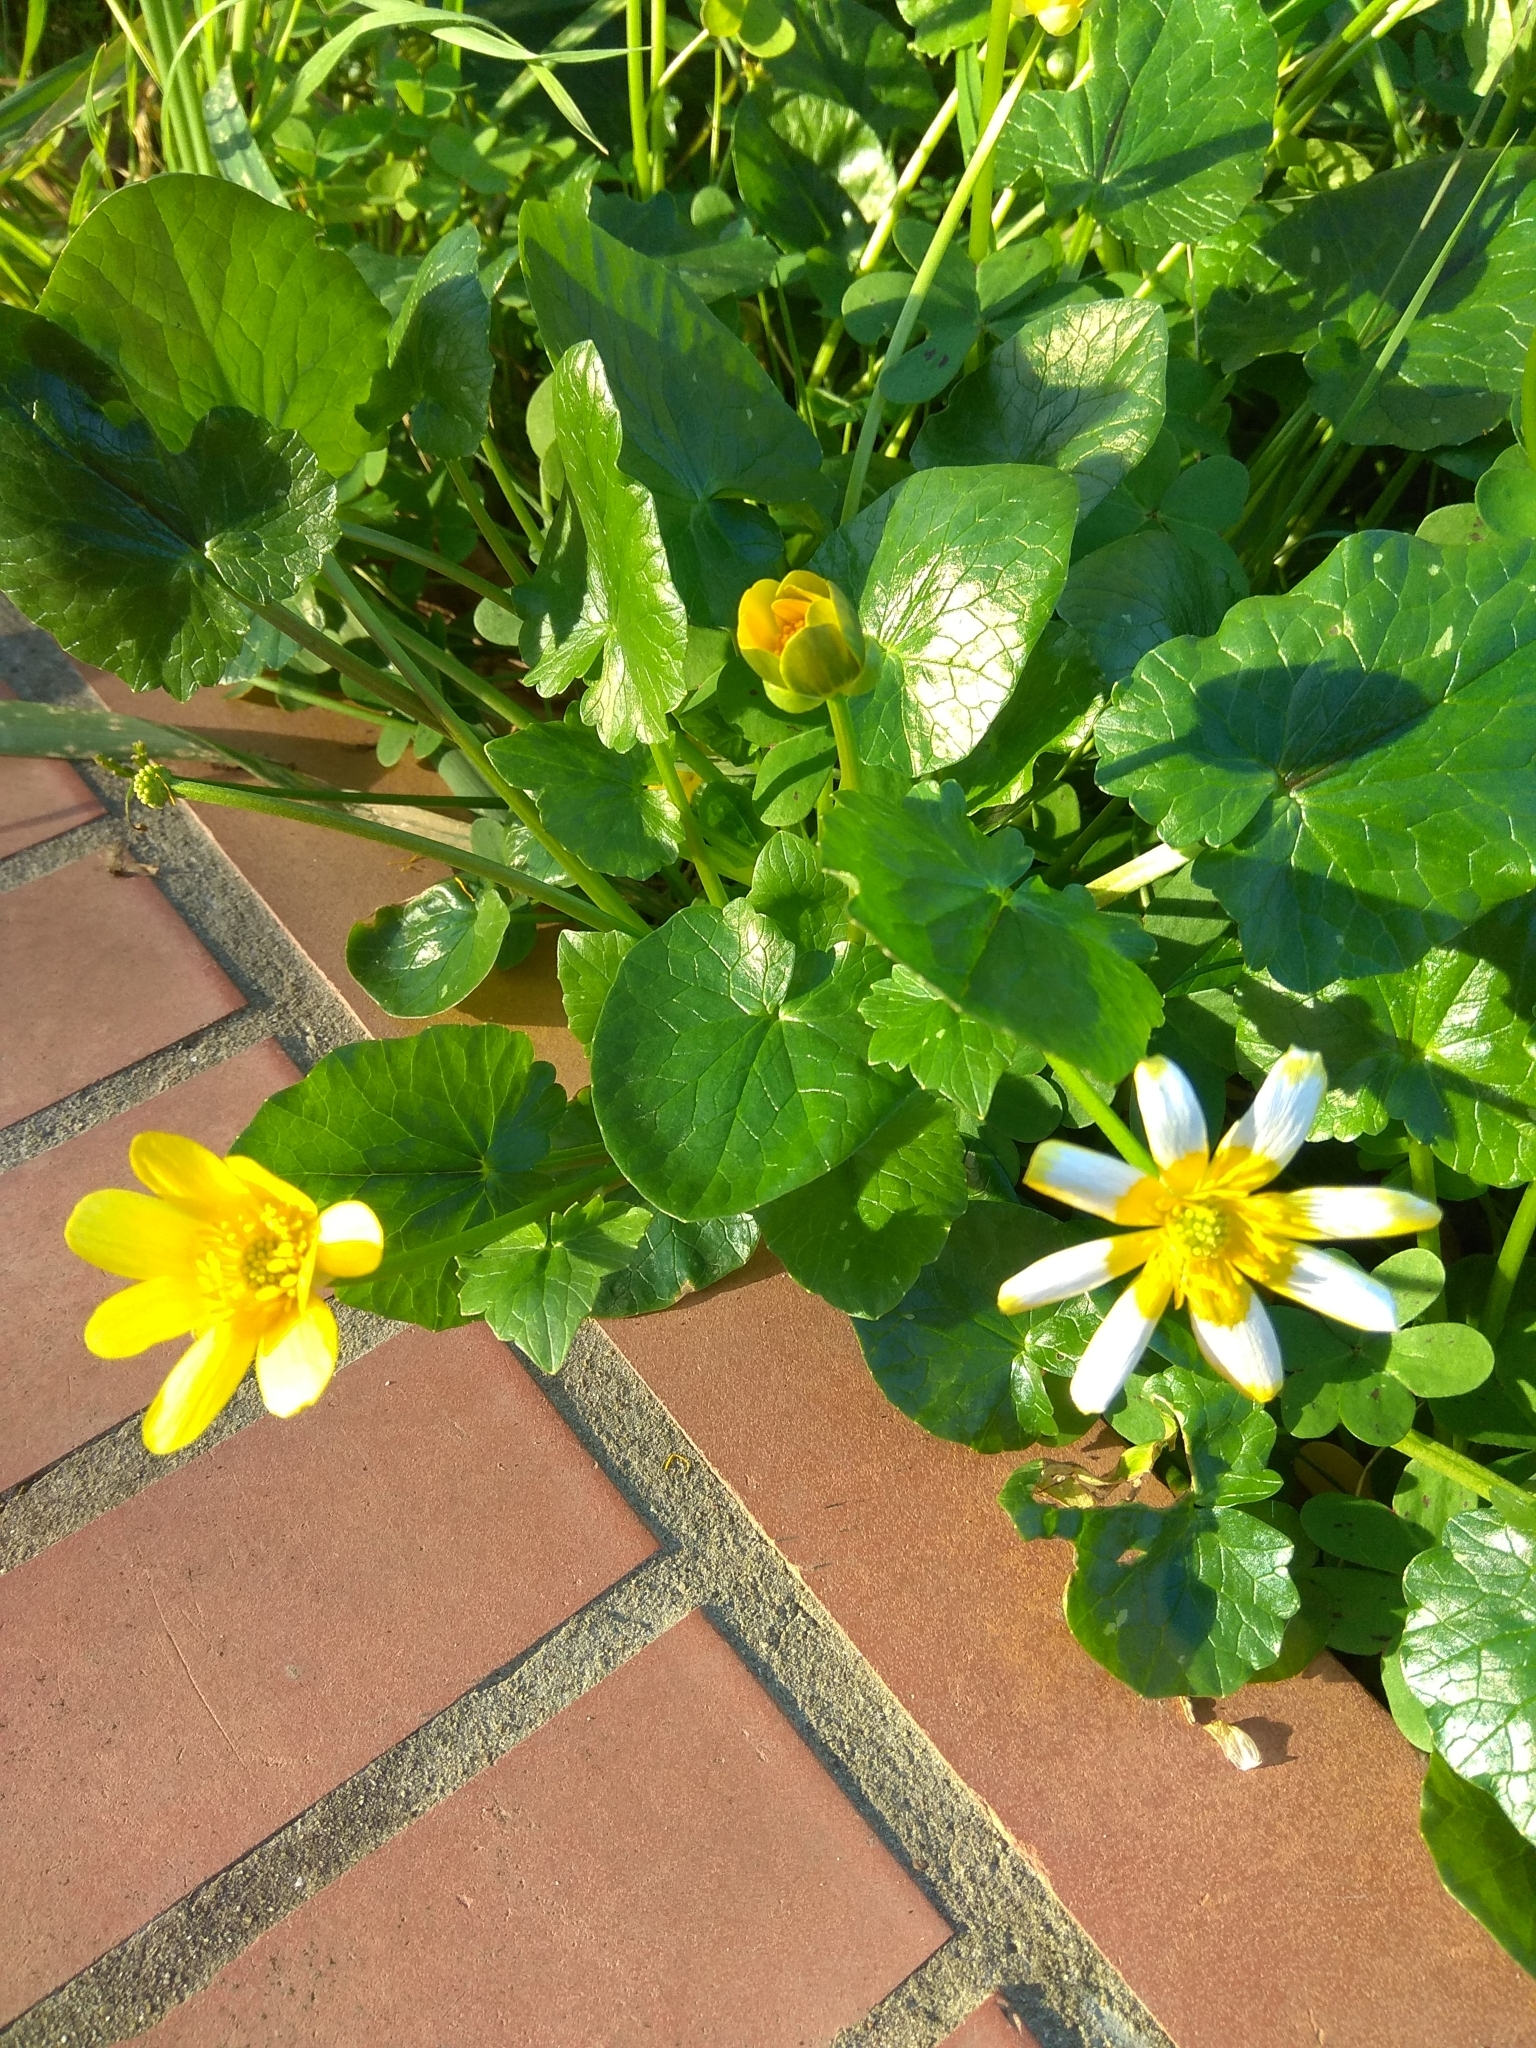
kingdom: Plantae
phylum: Tracheophyta
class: Magnoliopsida
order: Ranunculales
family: Ranunculaceae
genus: Ficaria
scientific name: Ficaria verna
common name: Lesser celandine
